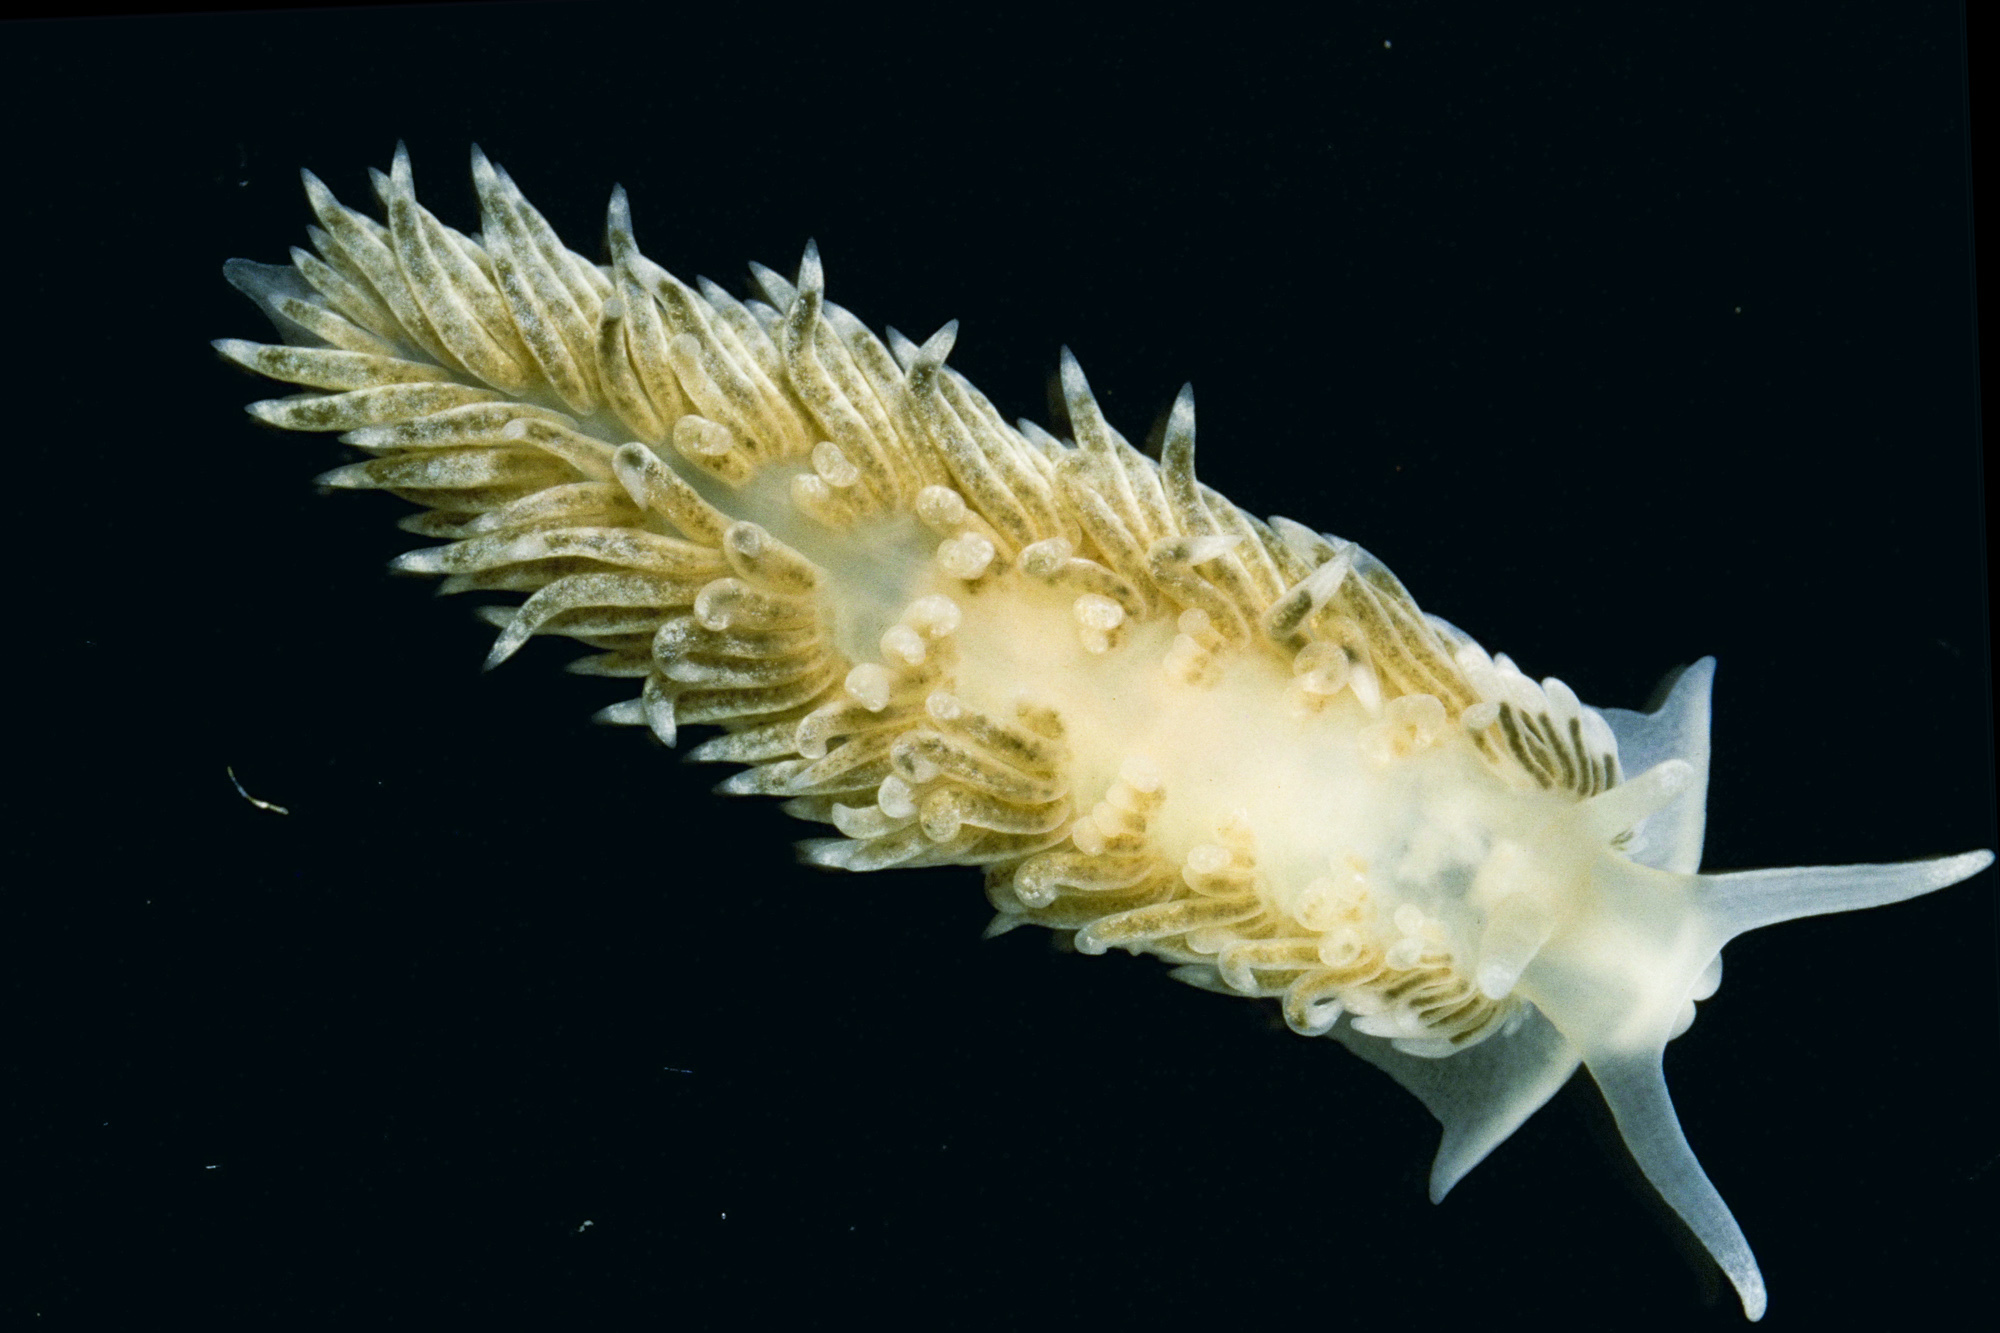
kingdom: Animalia
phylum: Mollusca
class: Gastropoda
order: Nudibranchia
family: Aeolidiidae
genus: Aeolidiella
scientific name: Aeolidiella alderi
